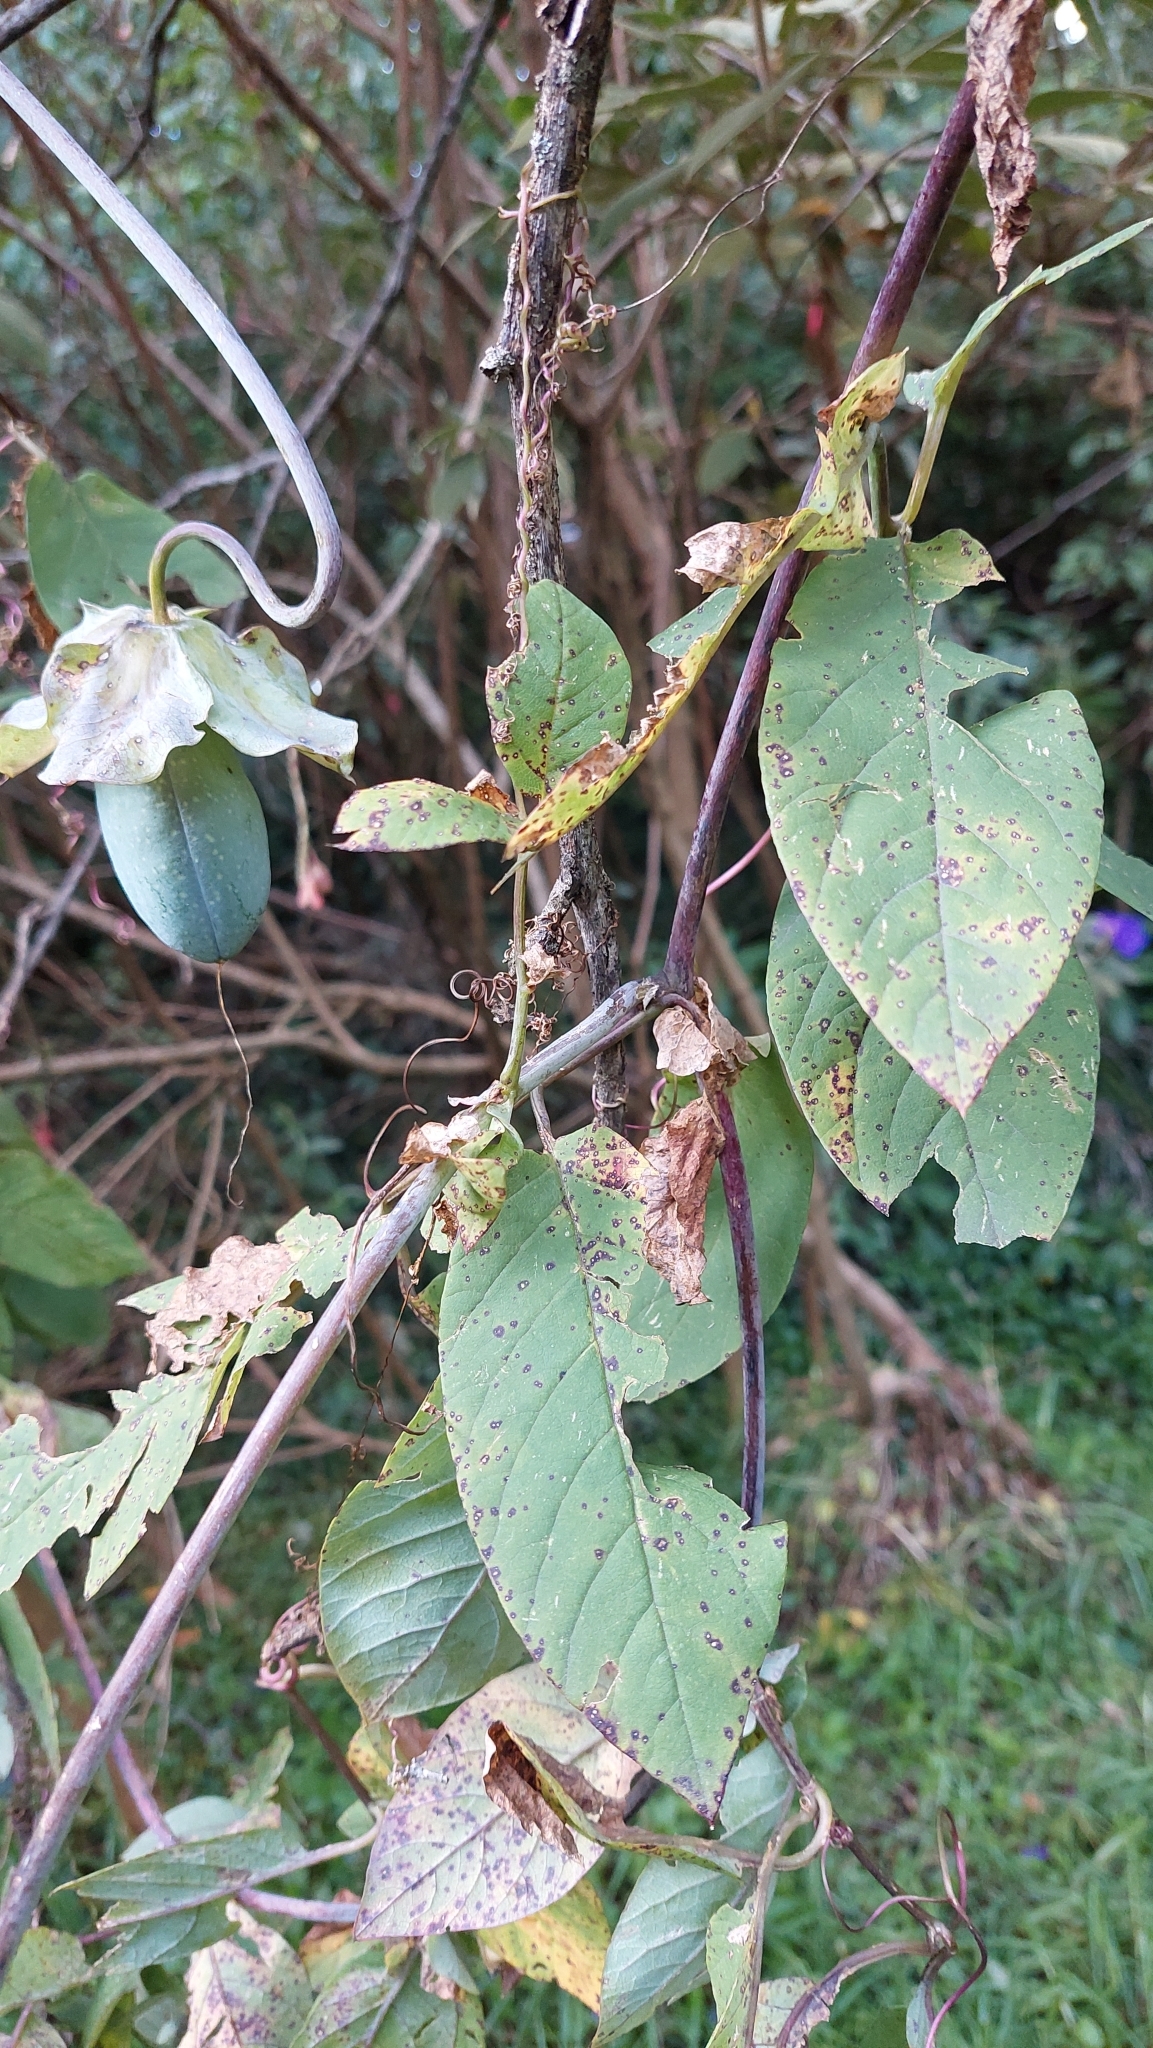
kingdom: Plantae
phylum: Tracheophyta
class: Magnoliopsida
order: Ericales
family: Polemoniaceae
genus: Cobaea
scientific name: Cobaea scandens
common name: Cup-and-saucer-vine
